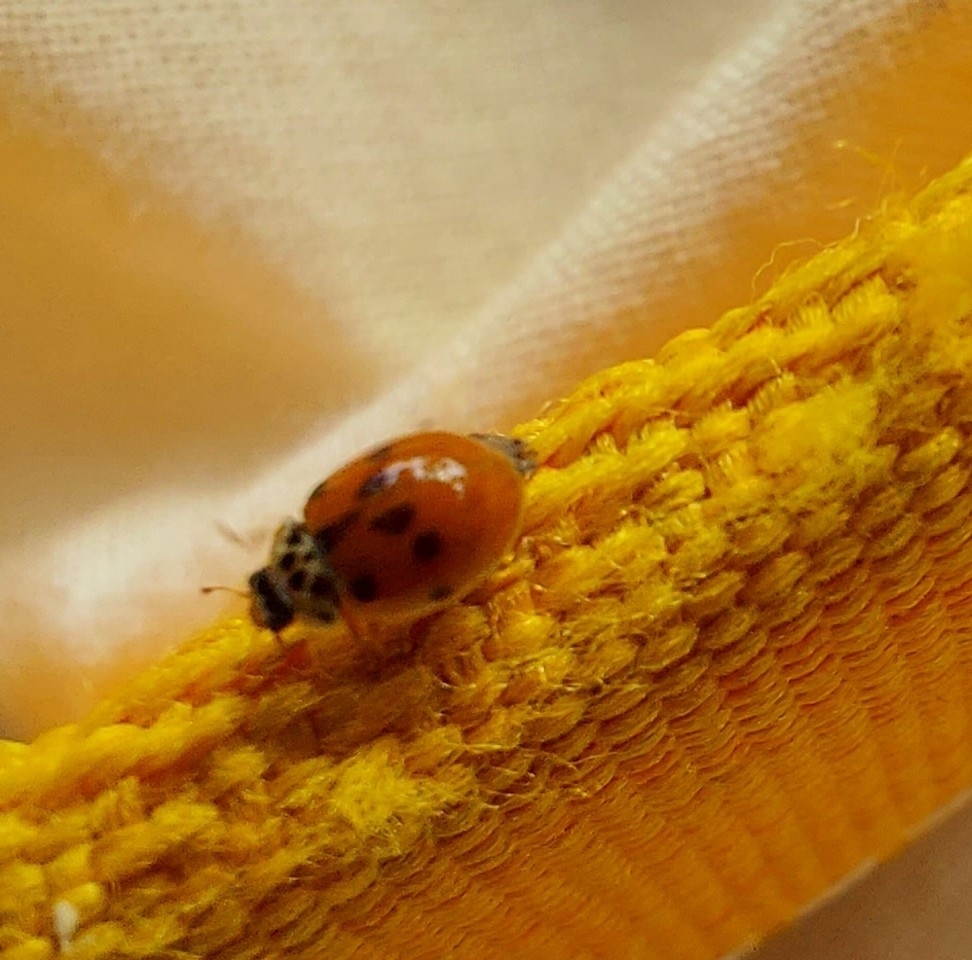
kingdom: Animalia
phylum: Arthropoda
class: Insecta
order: Coleoptera
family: Coccinellidae
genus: Adalia
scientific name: Adalia decempunctata
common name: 10-spot ladybird
